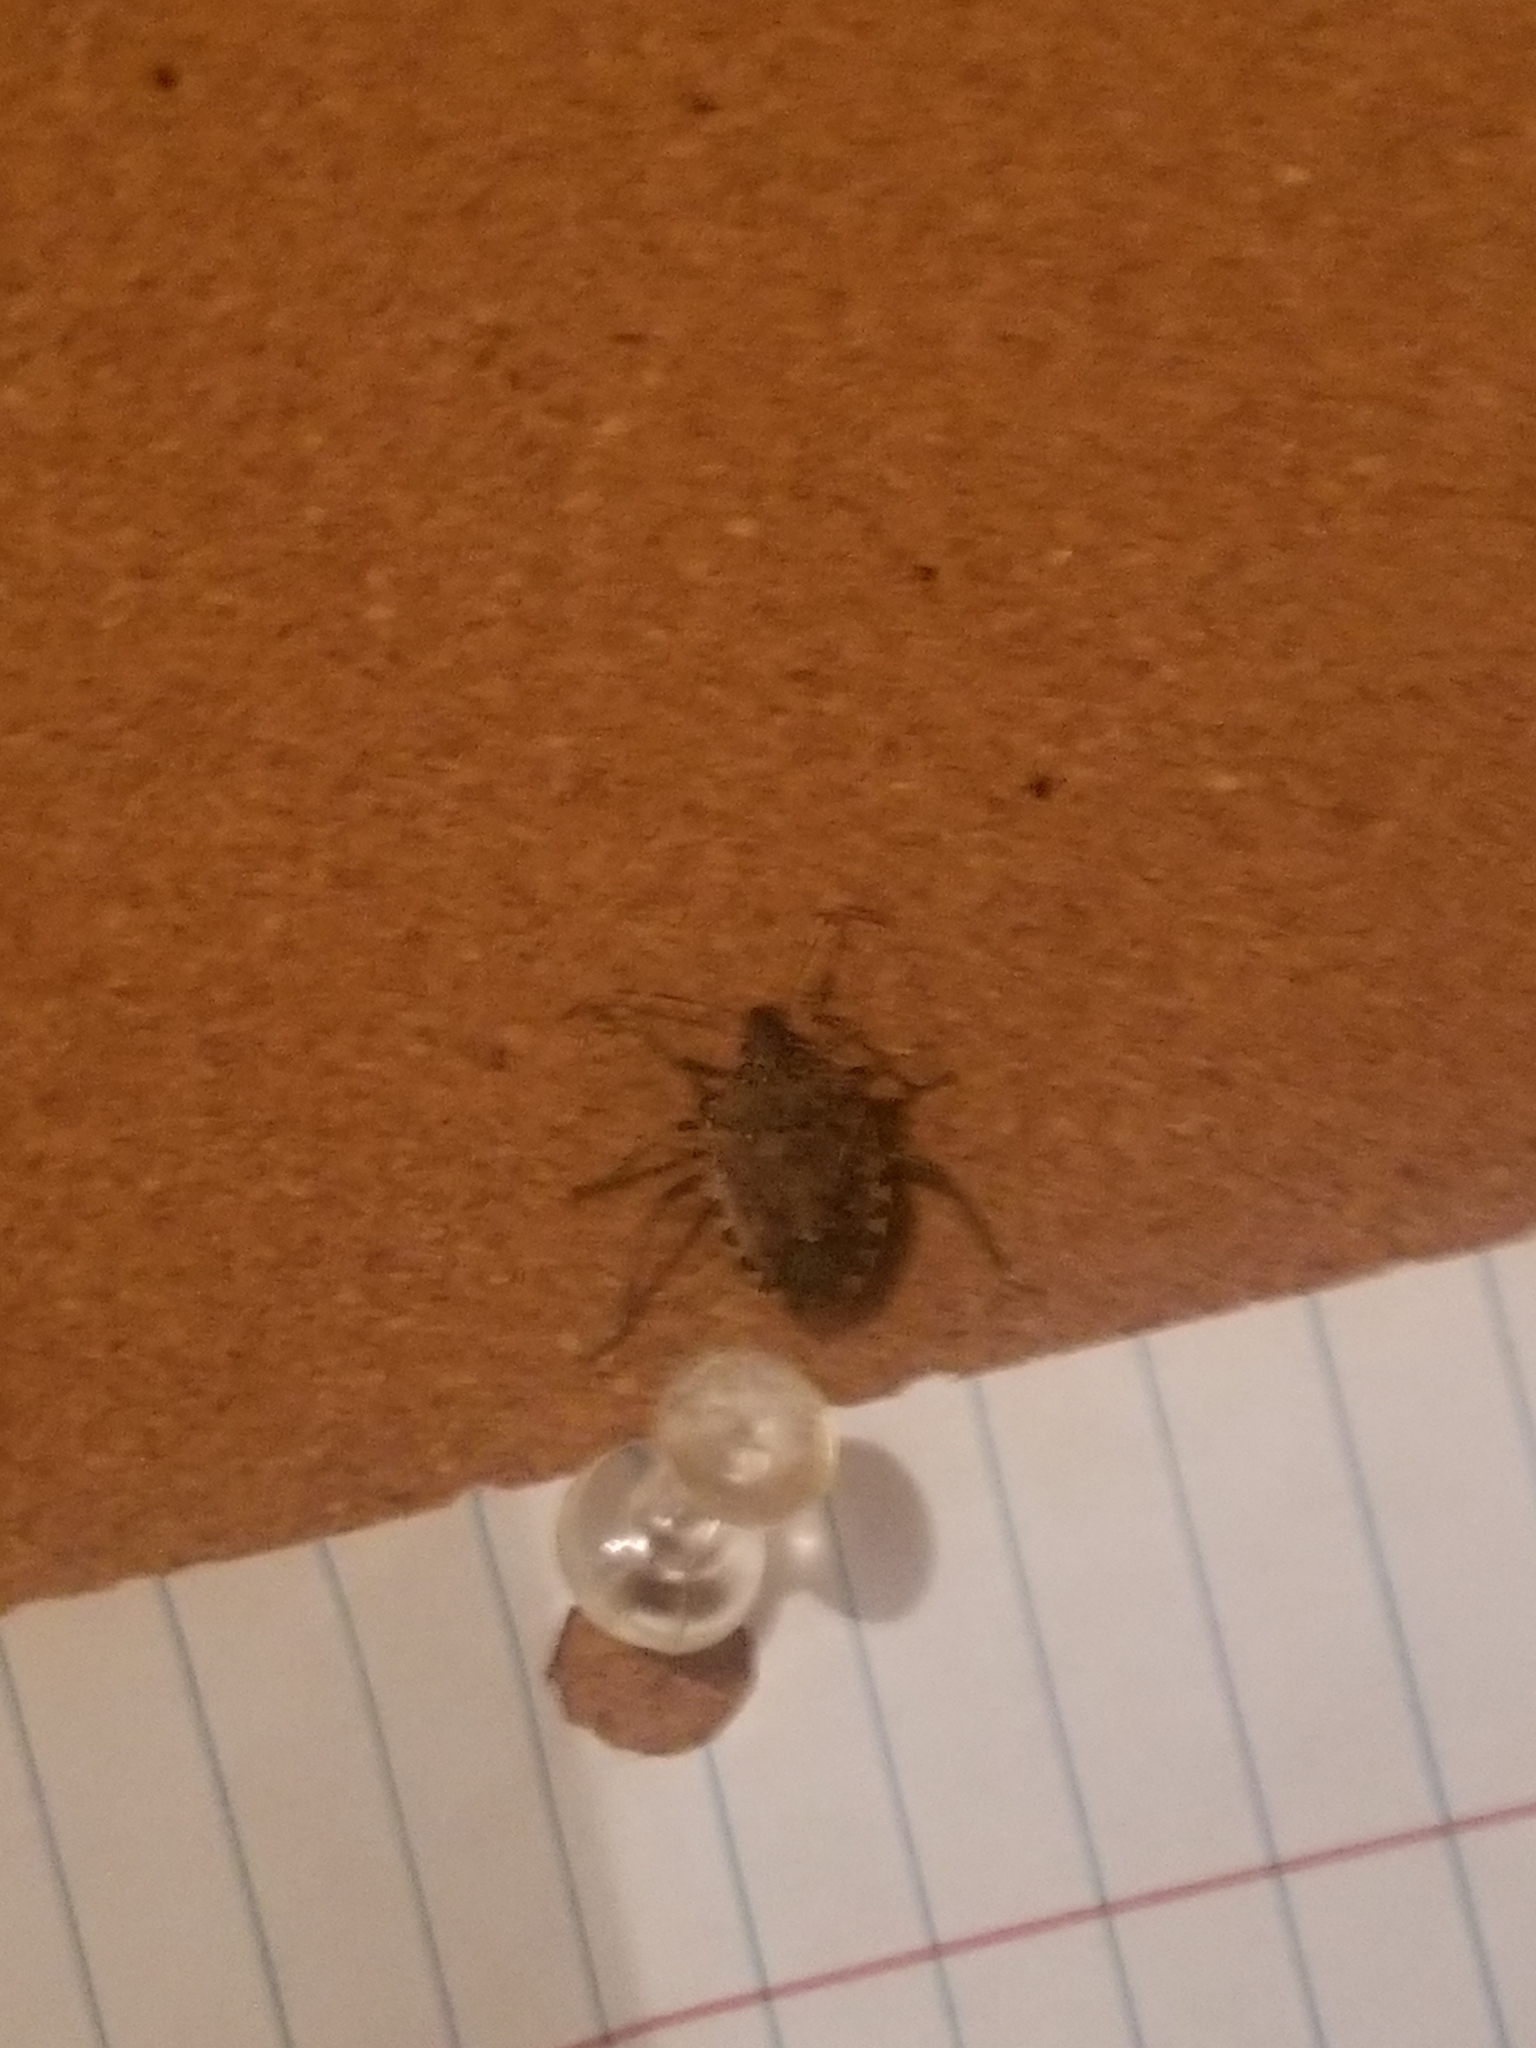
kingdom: Animalia
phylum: Arthropoda
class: Insecta
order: Hemiptera
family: Pentatomidae
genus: Halyomorpha
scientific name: Halyomorpha halys
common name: Brown marmorated stink bug
